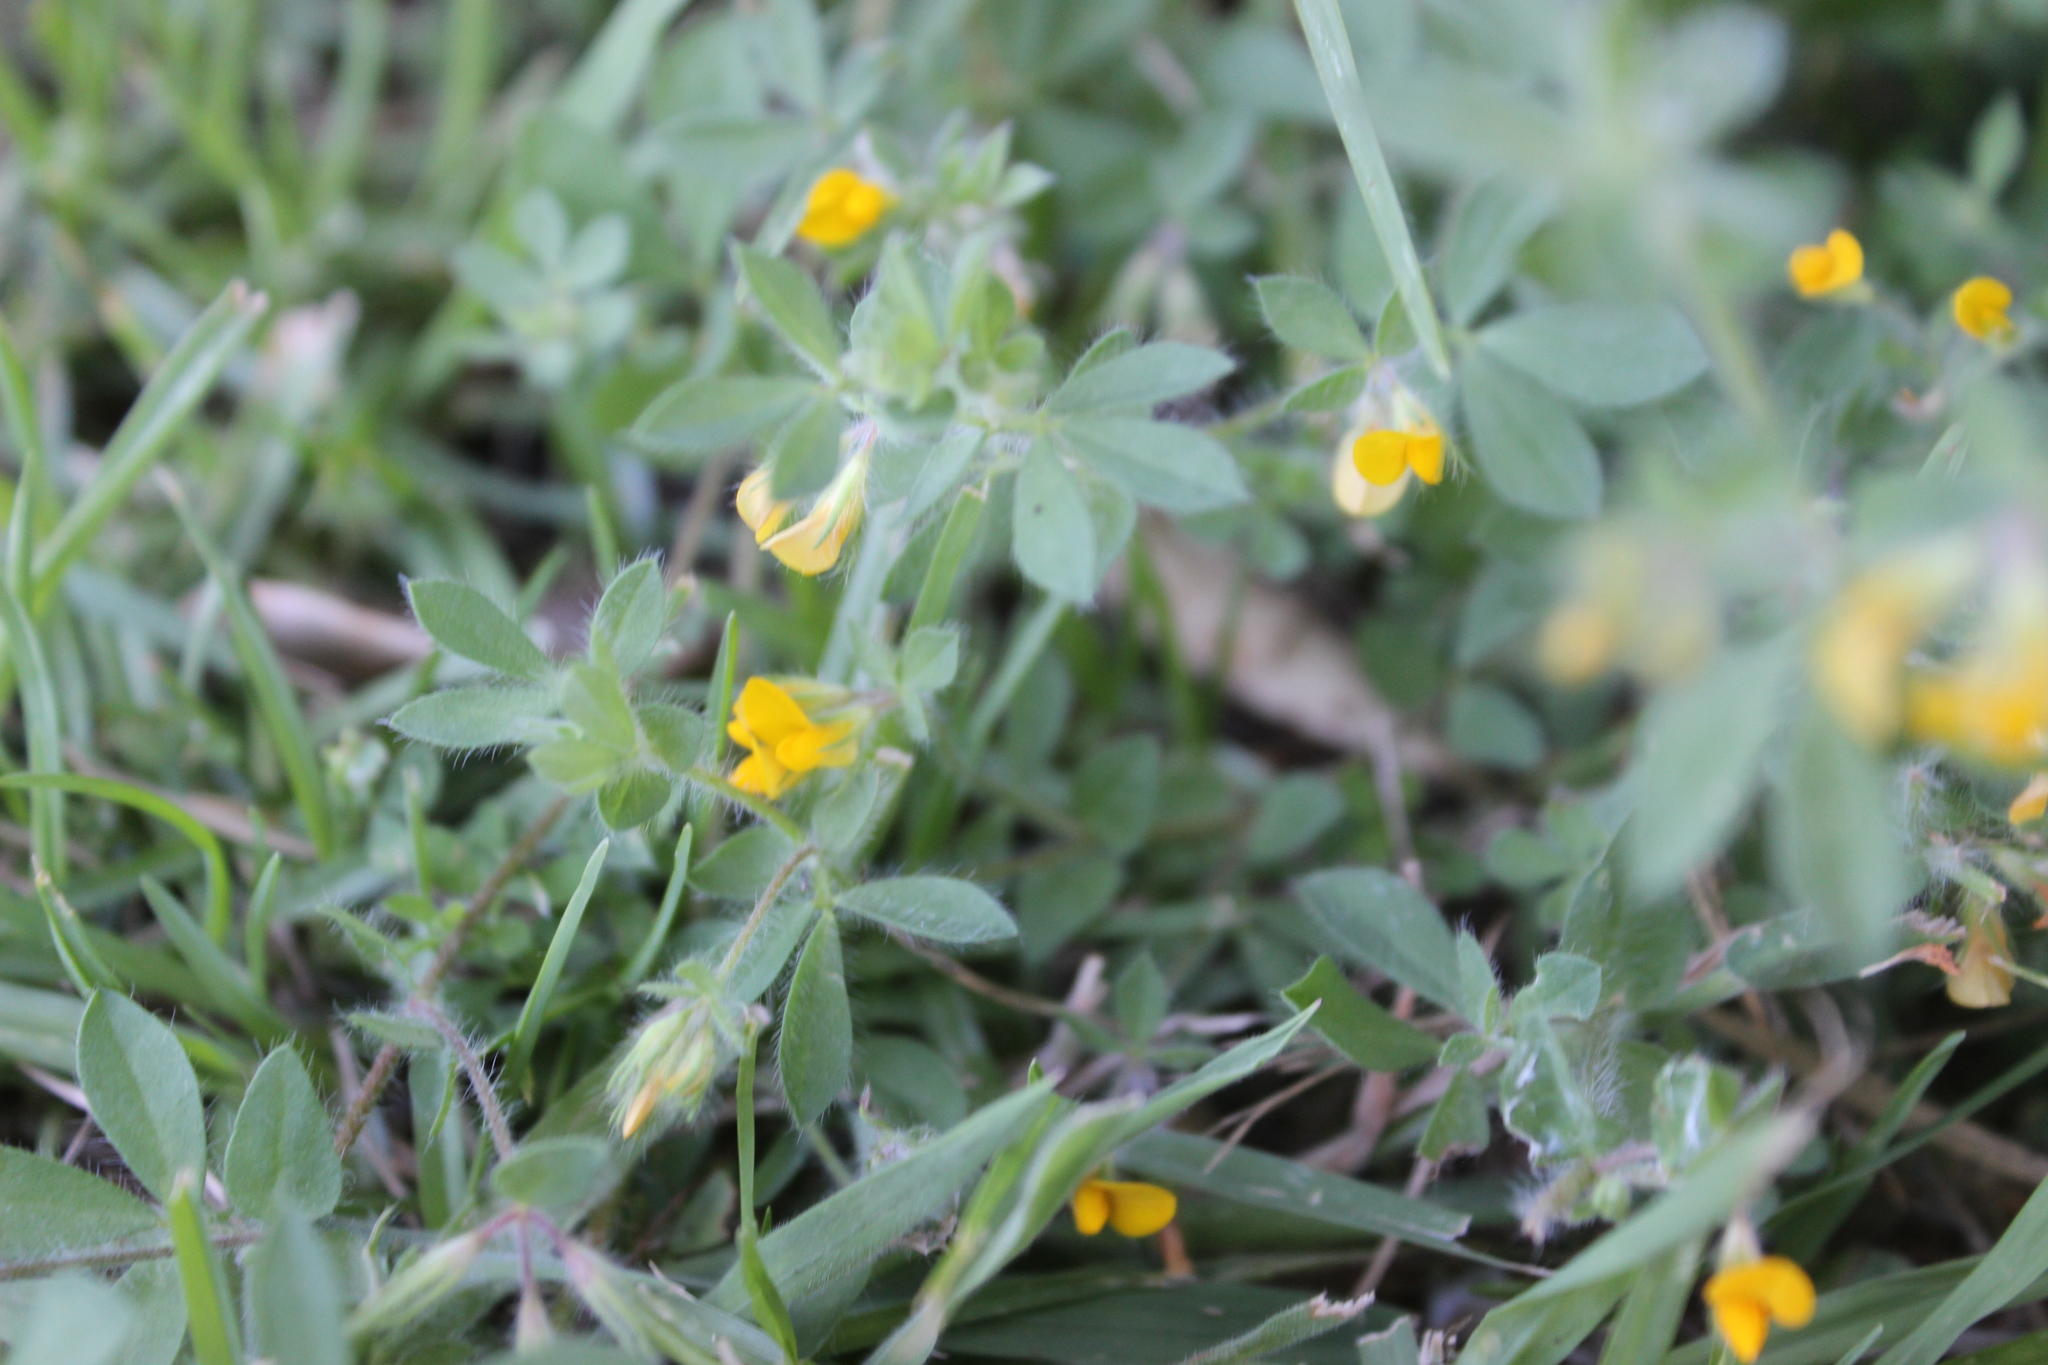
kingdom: Plantae
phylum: Tracheophyta
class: Magnoliopsida
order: Fabales
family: Fabaceae
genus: Lotus
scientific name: Lotus subbiflorus
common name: Hairy bird's-foot trefoil
